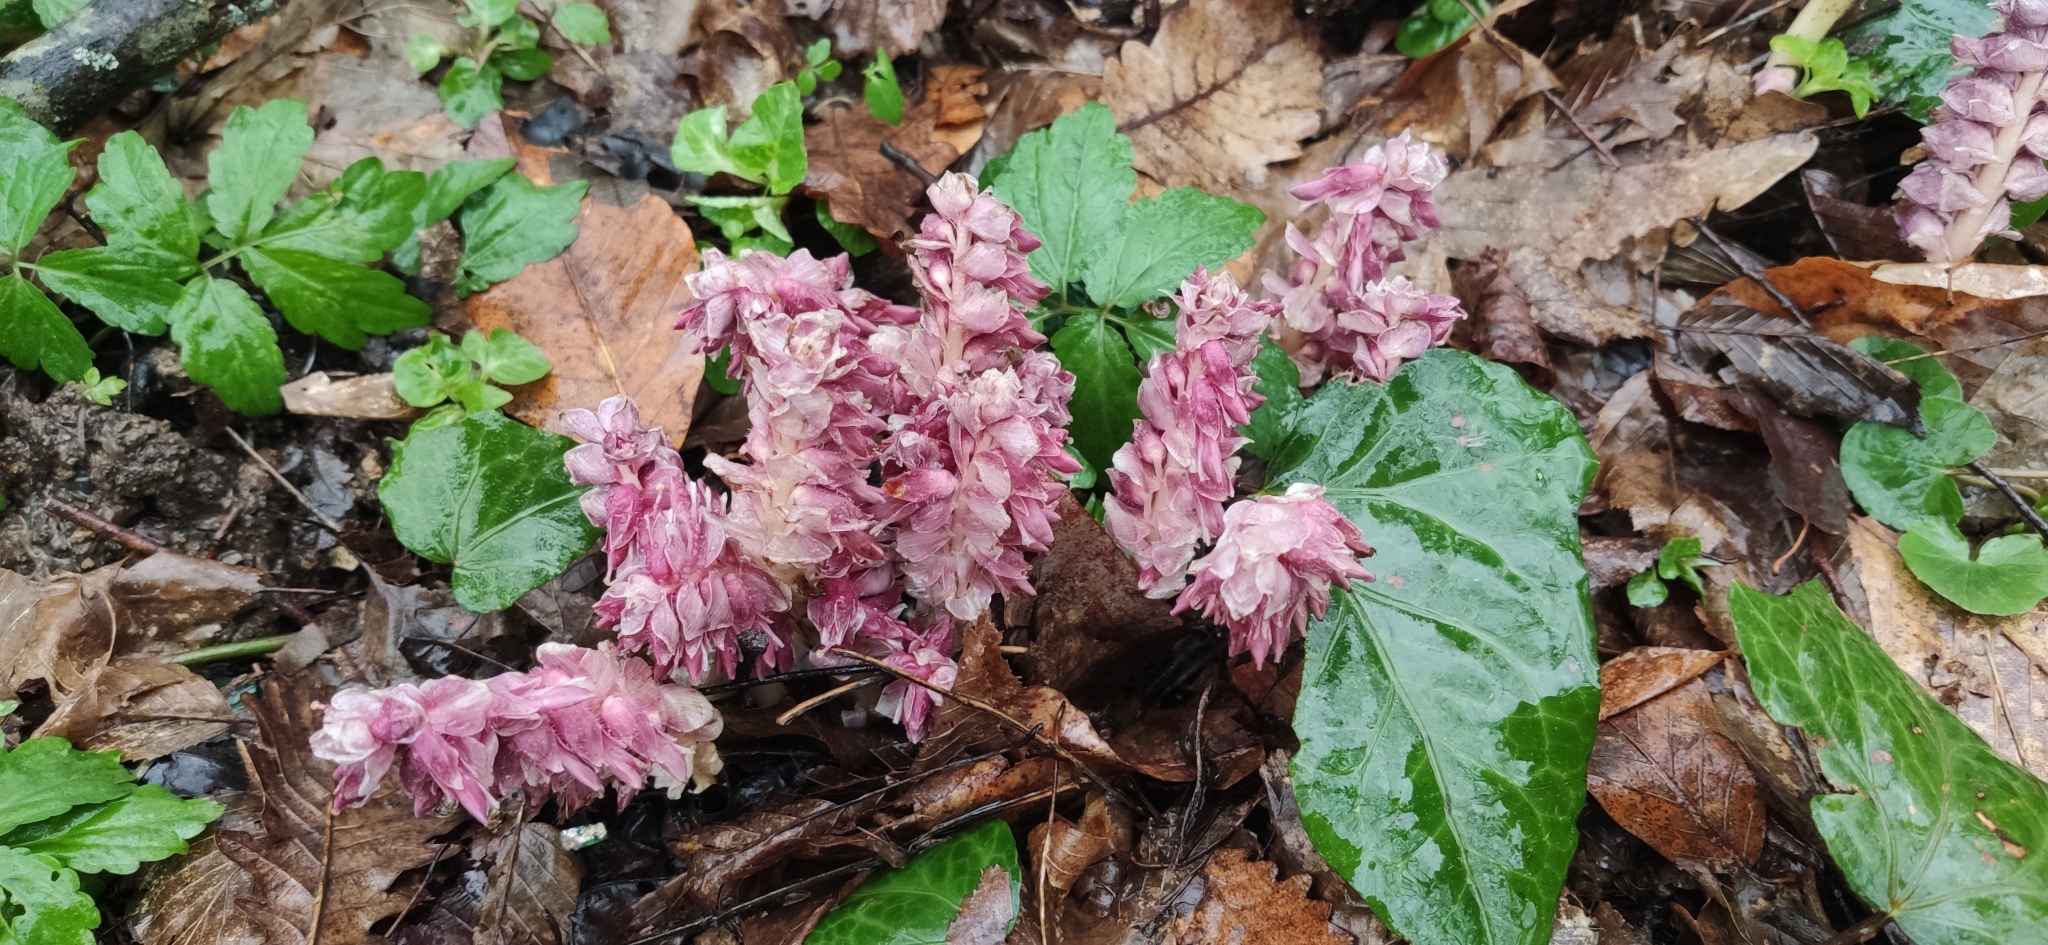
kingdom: Plantae
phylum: Tracheophyta
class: Magnoliopsida
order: Lamiales
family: Orobanchaceae
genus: Lathraea
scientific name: Lathraea squamaria
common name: Toothwort
